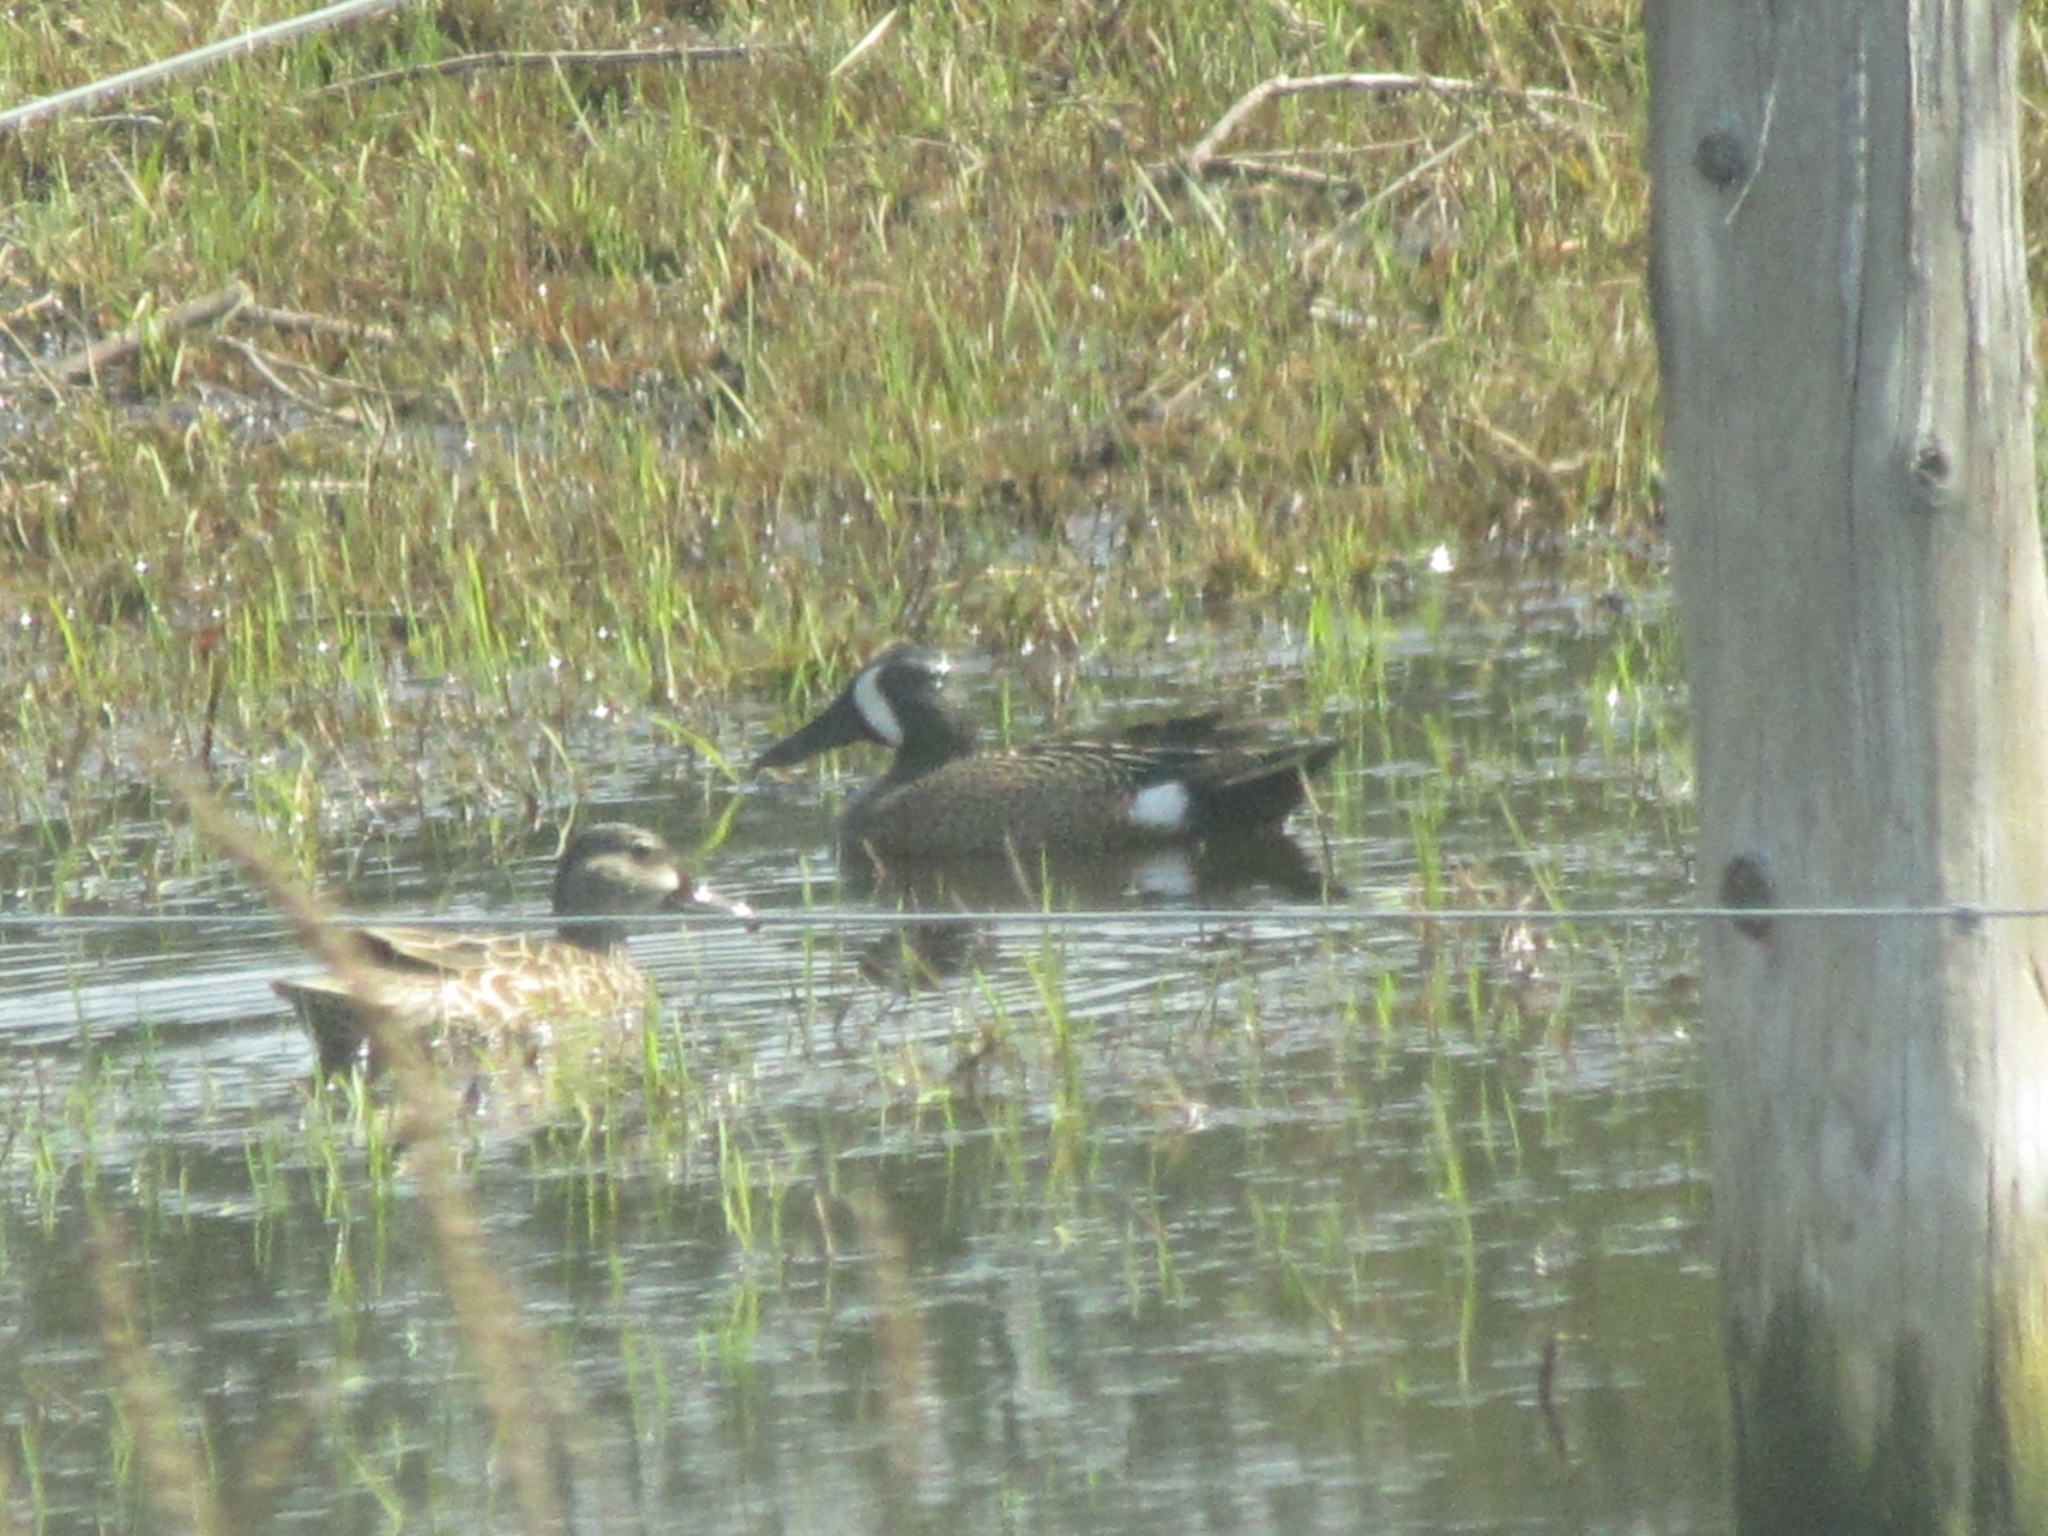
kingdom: Animalia
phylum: Chordata
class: Aves
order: Anseriformes
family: Anatidae
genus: Spatula
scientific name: Spatula discors
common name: Blue-winged teal
